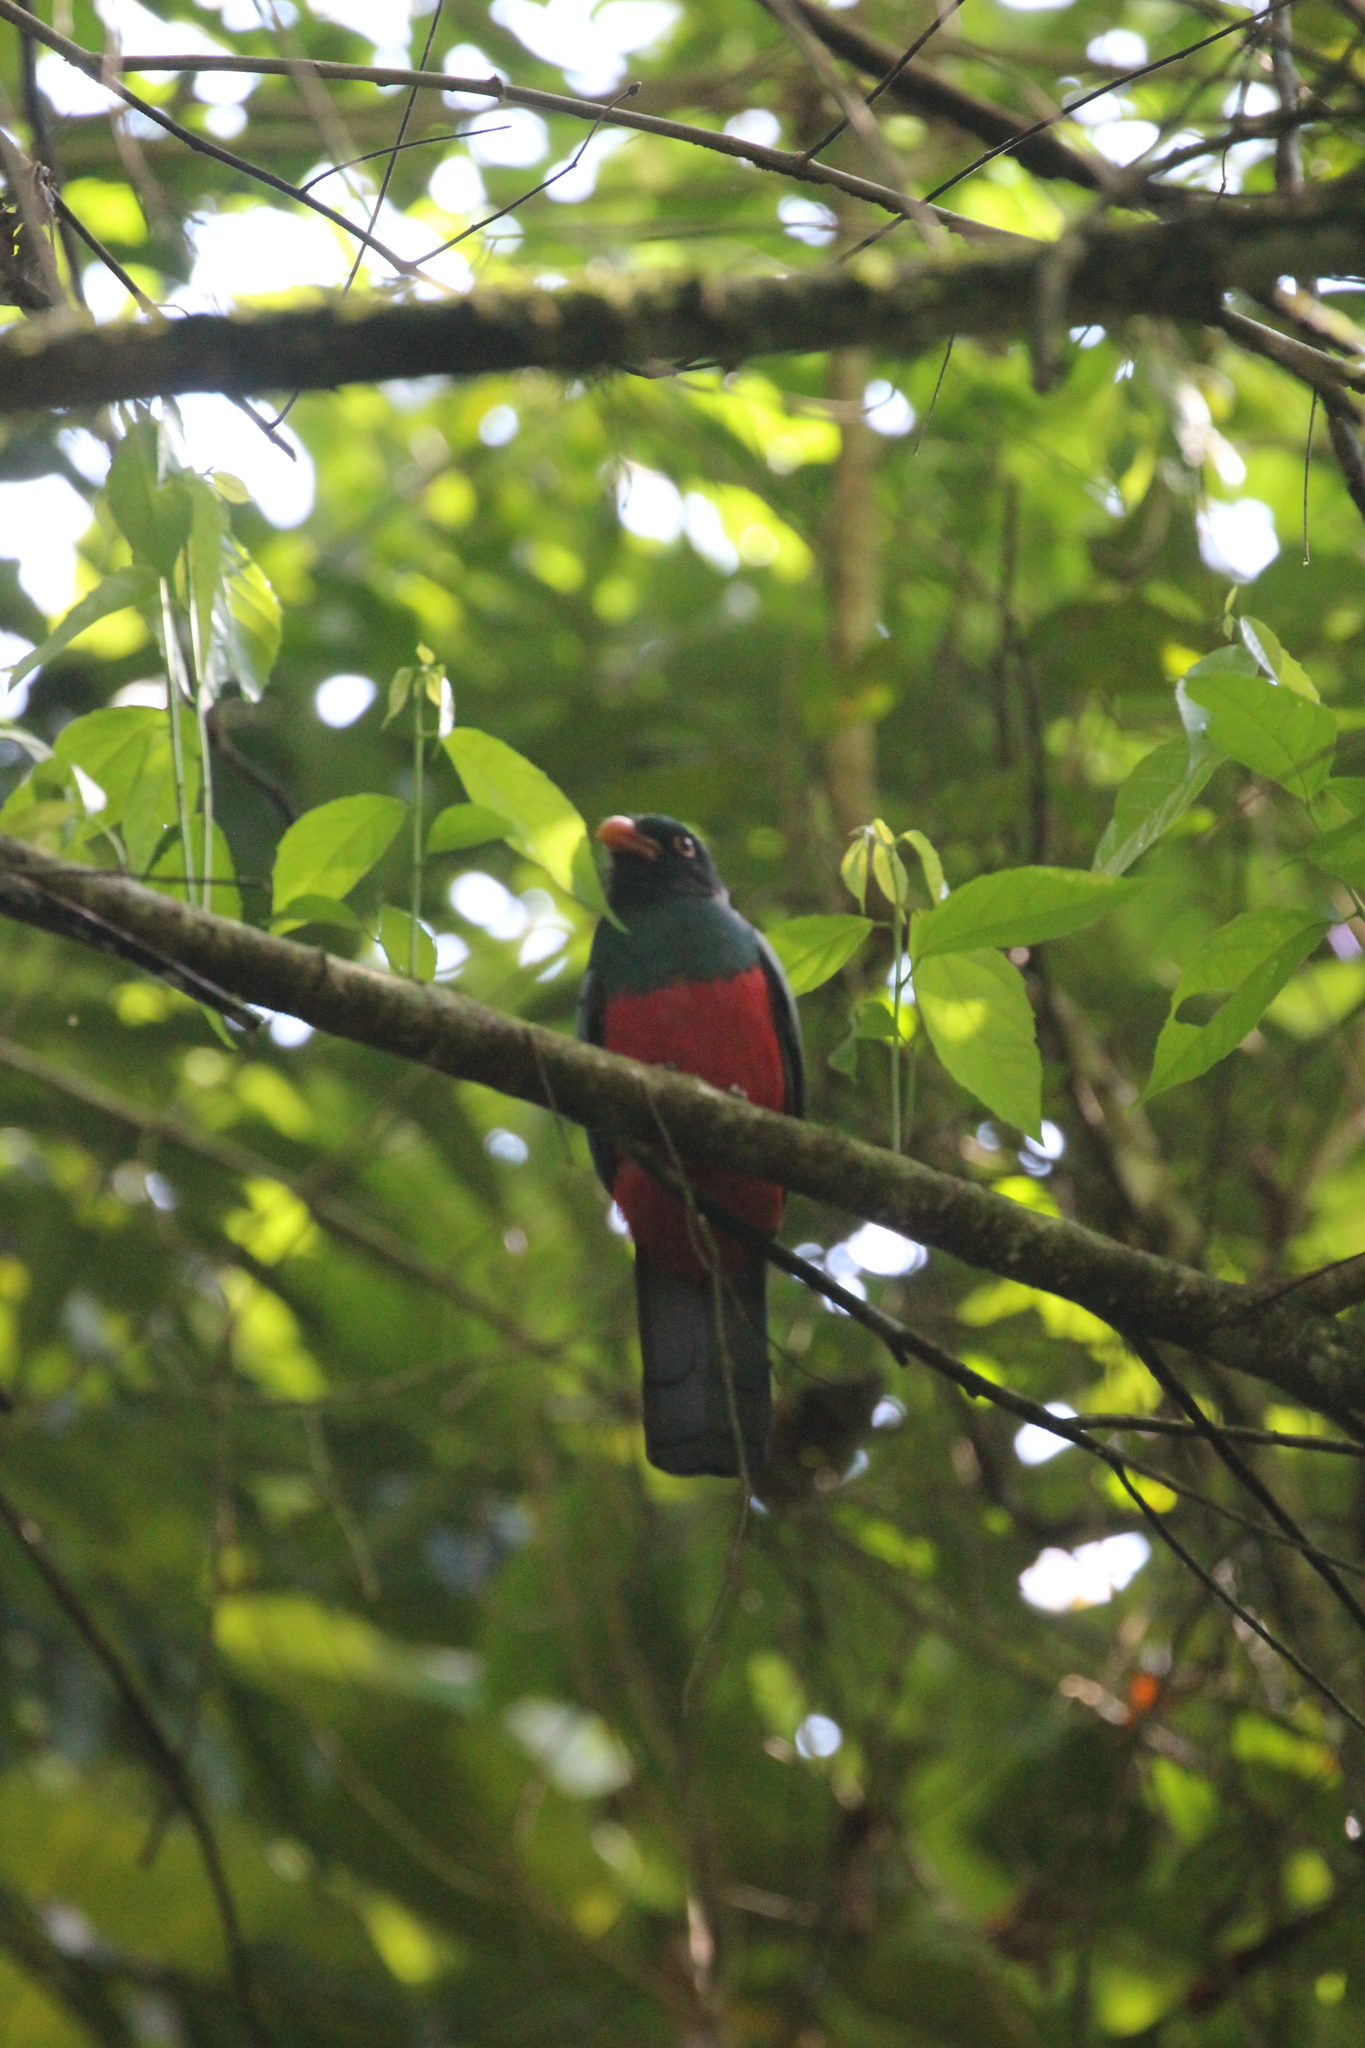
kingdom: Animalia
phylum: Chordata
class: Aves
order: Trogoniformes
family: Trogonidae
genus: Trogon
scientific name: Trogon massena
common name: Slaty-tailed trogon
